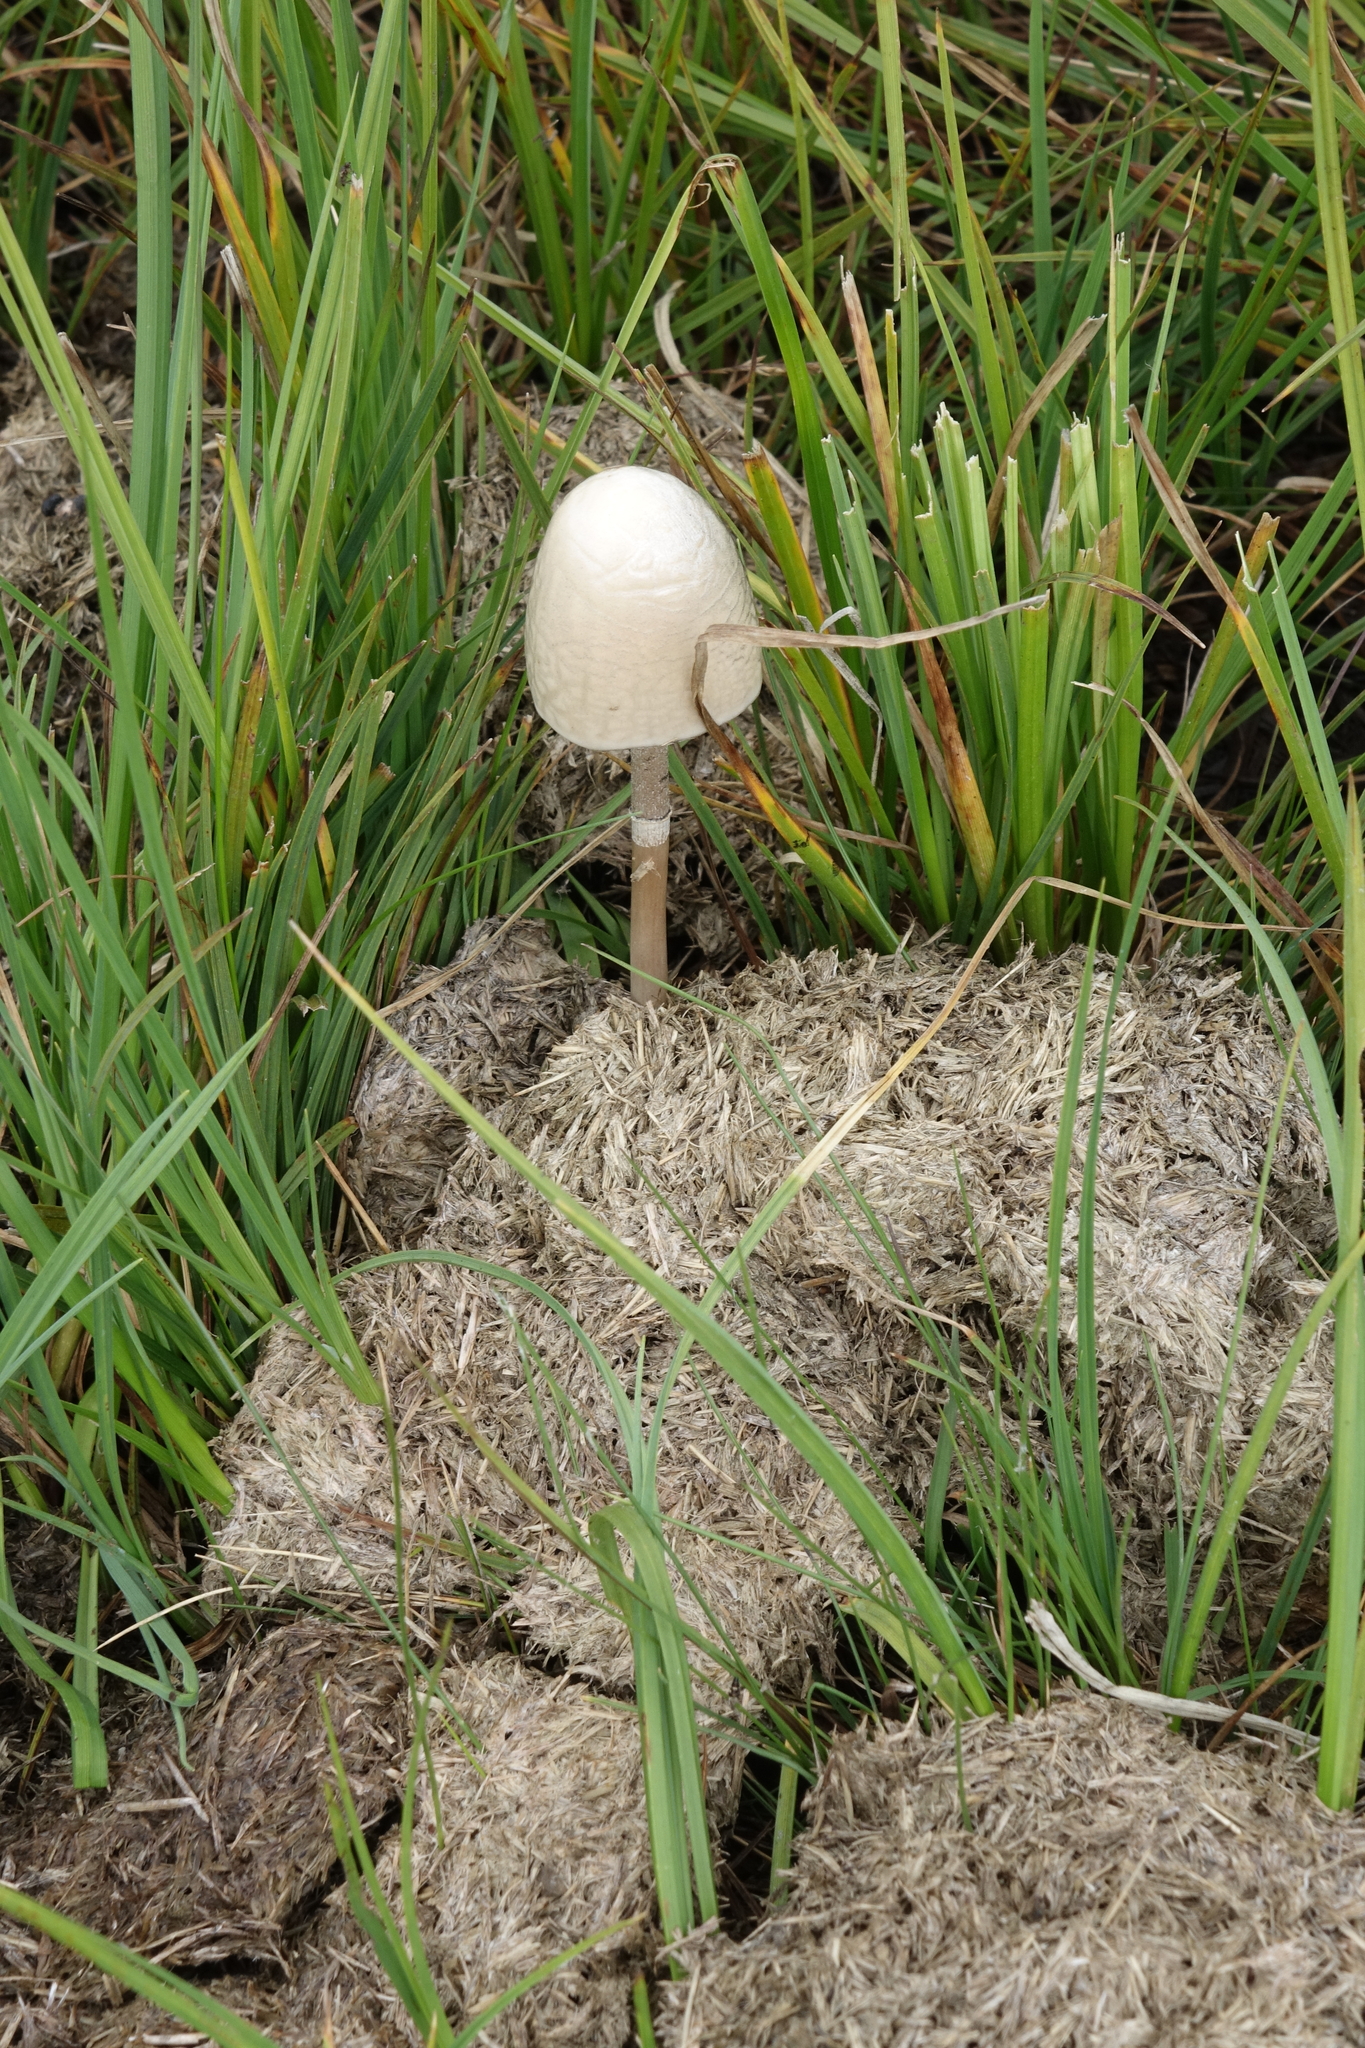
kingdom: Fungi
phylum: Basidiomycota
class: Agaricomycetes
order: Agaricales
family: Bolbitiaceae
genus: Panaeolus
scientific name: Panaeolus semiovatus
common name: Shiny mottlegill
